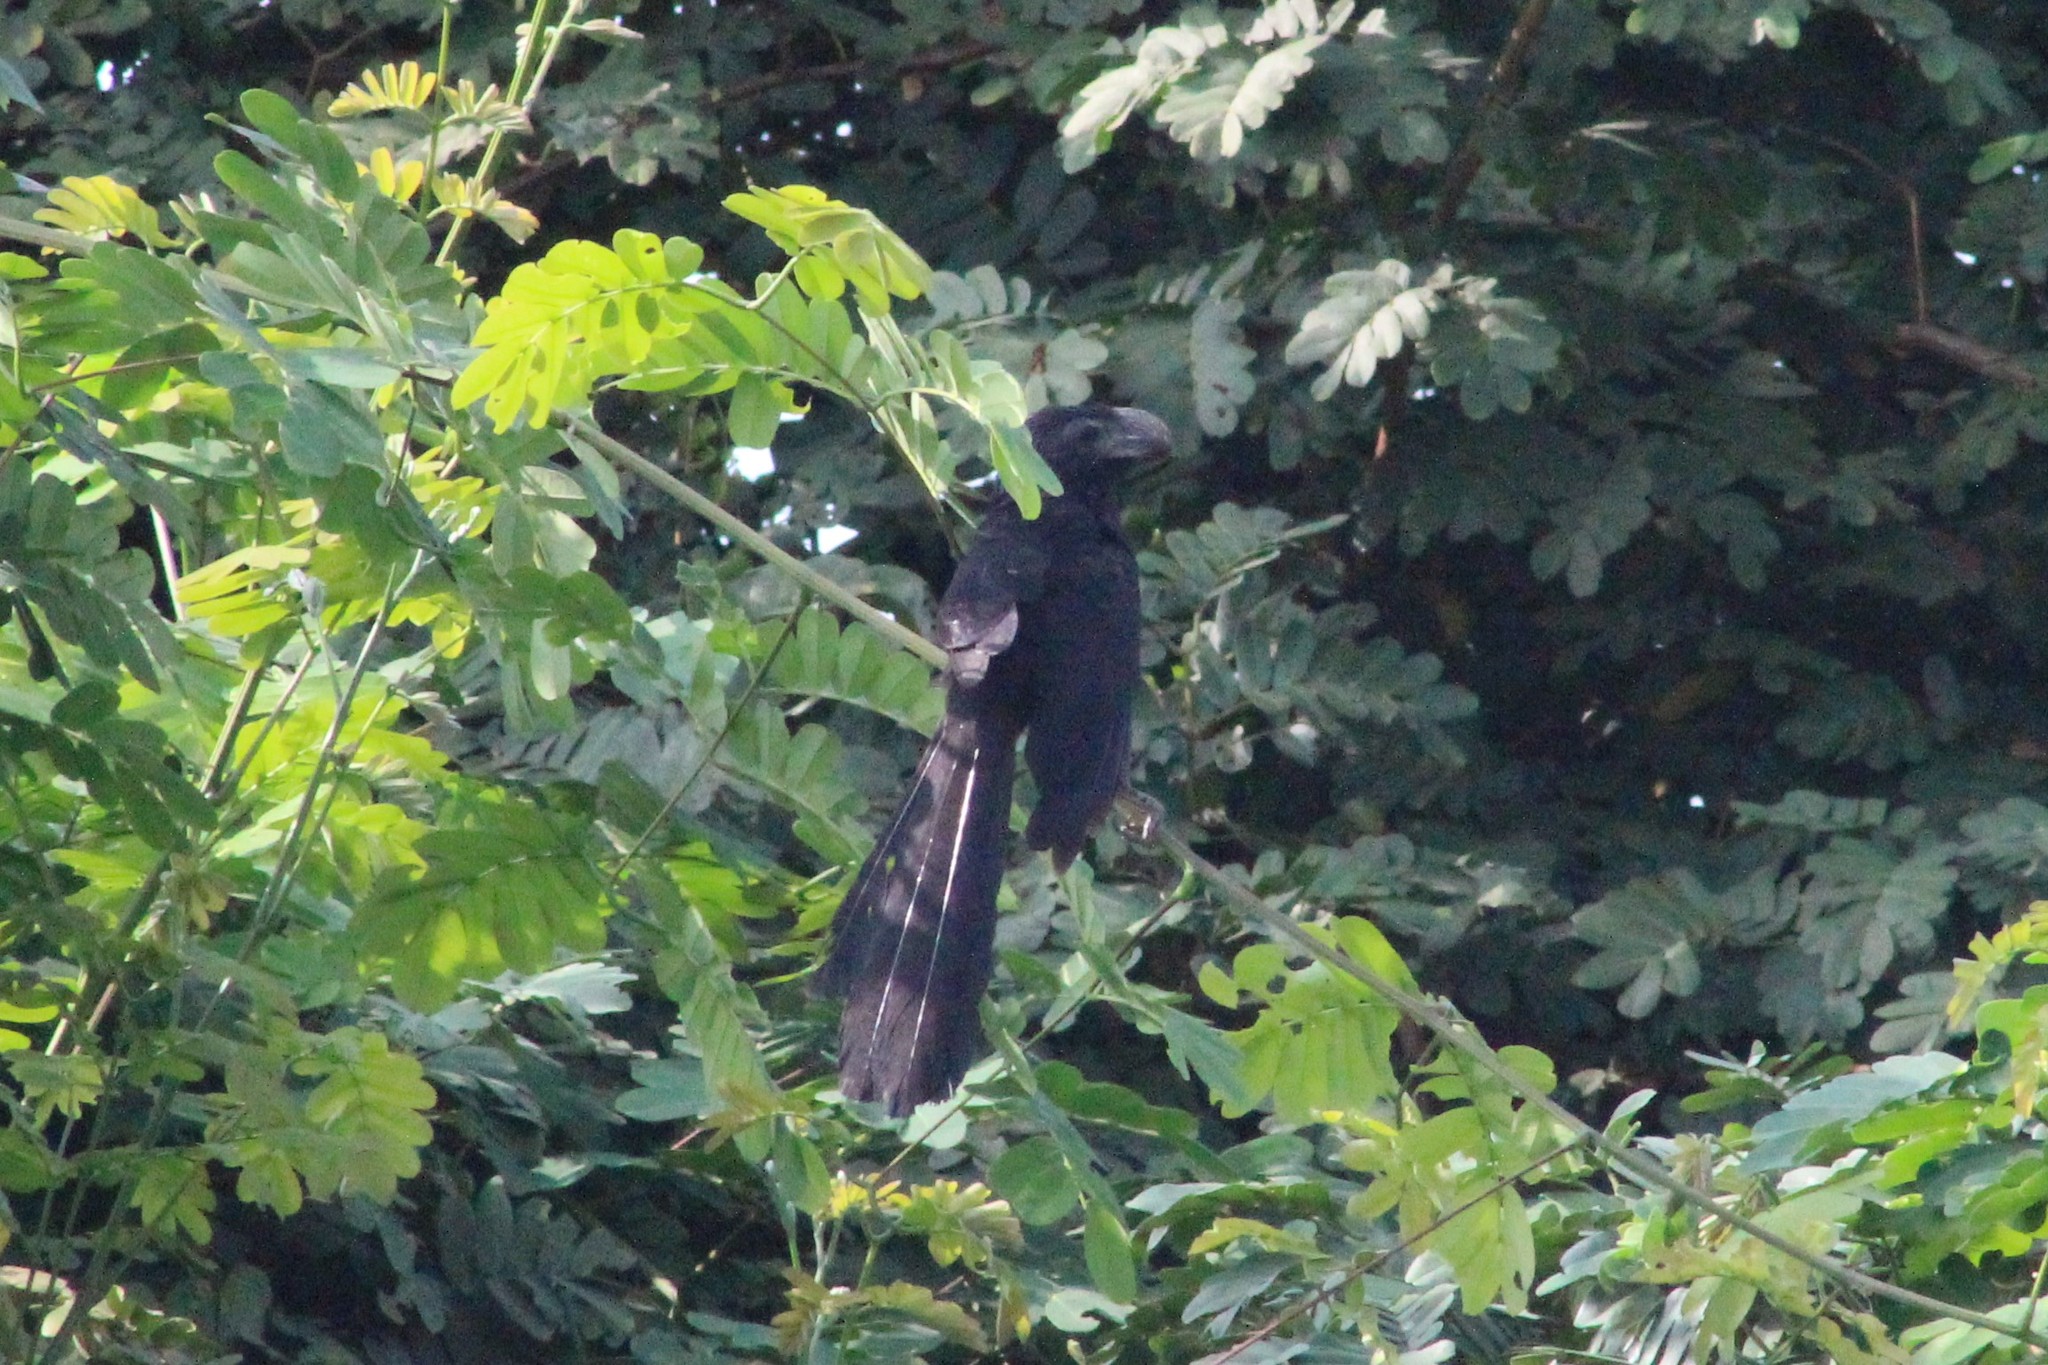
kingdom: Animalia
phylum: Chordata
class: Aves
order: Cuculiformes
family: Cuculidae
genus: Crotophaga
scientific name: Crotophaga ani
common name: Smooth-billed ani
